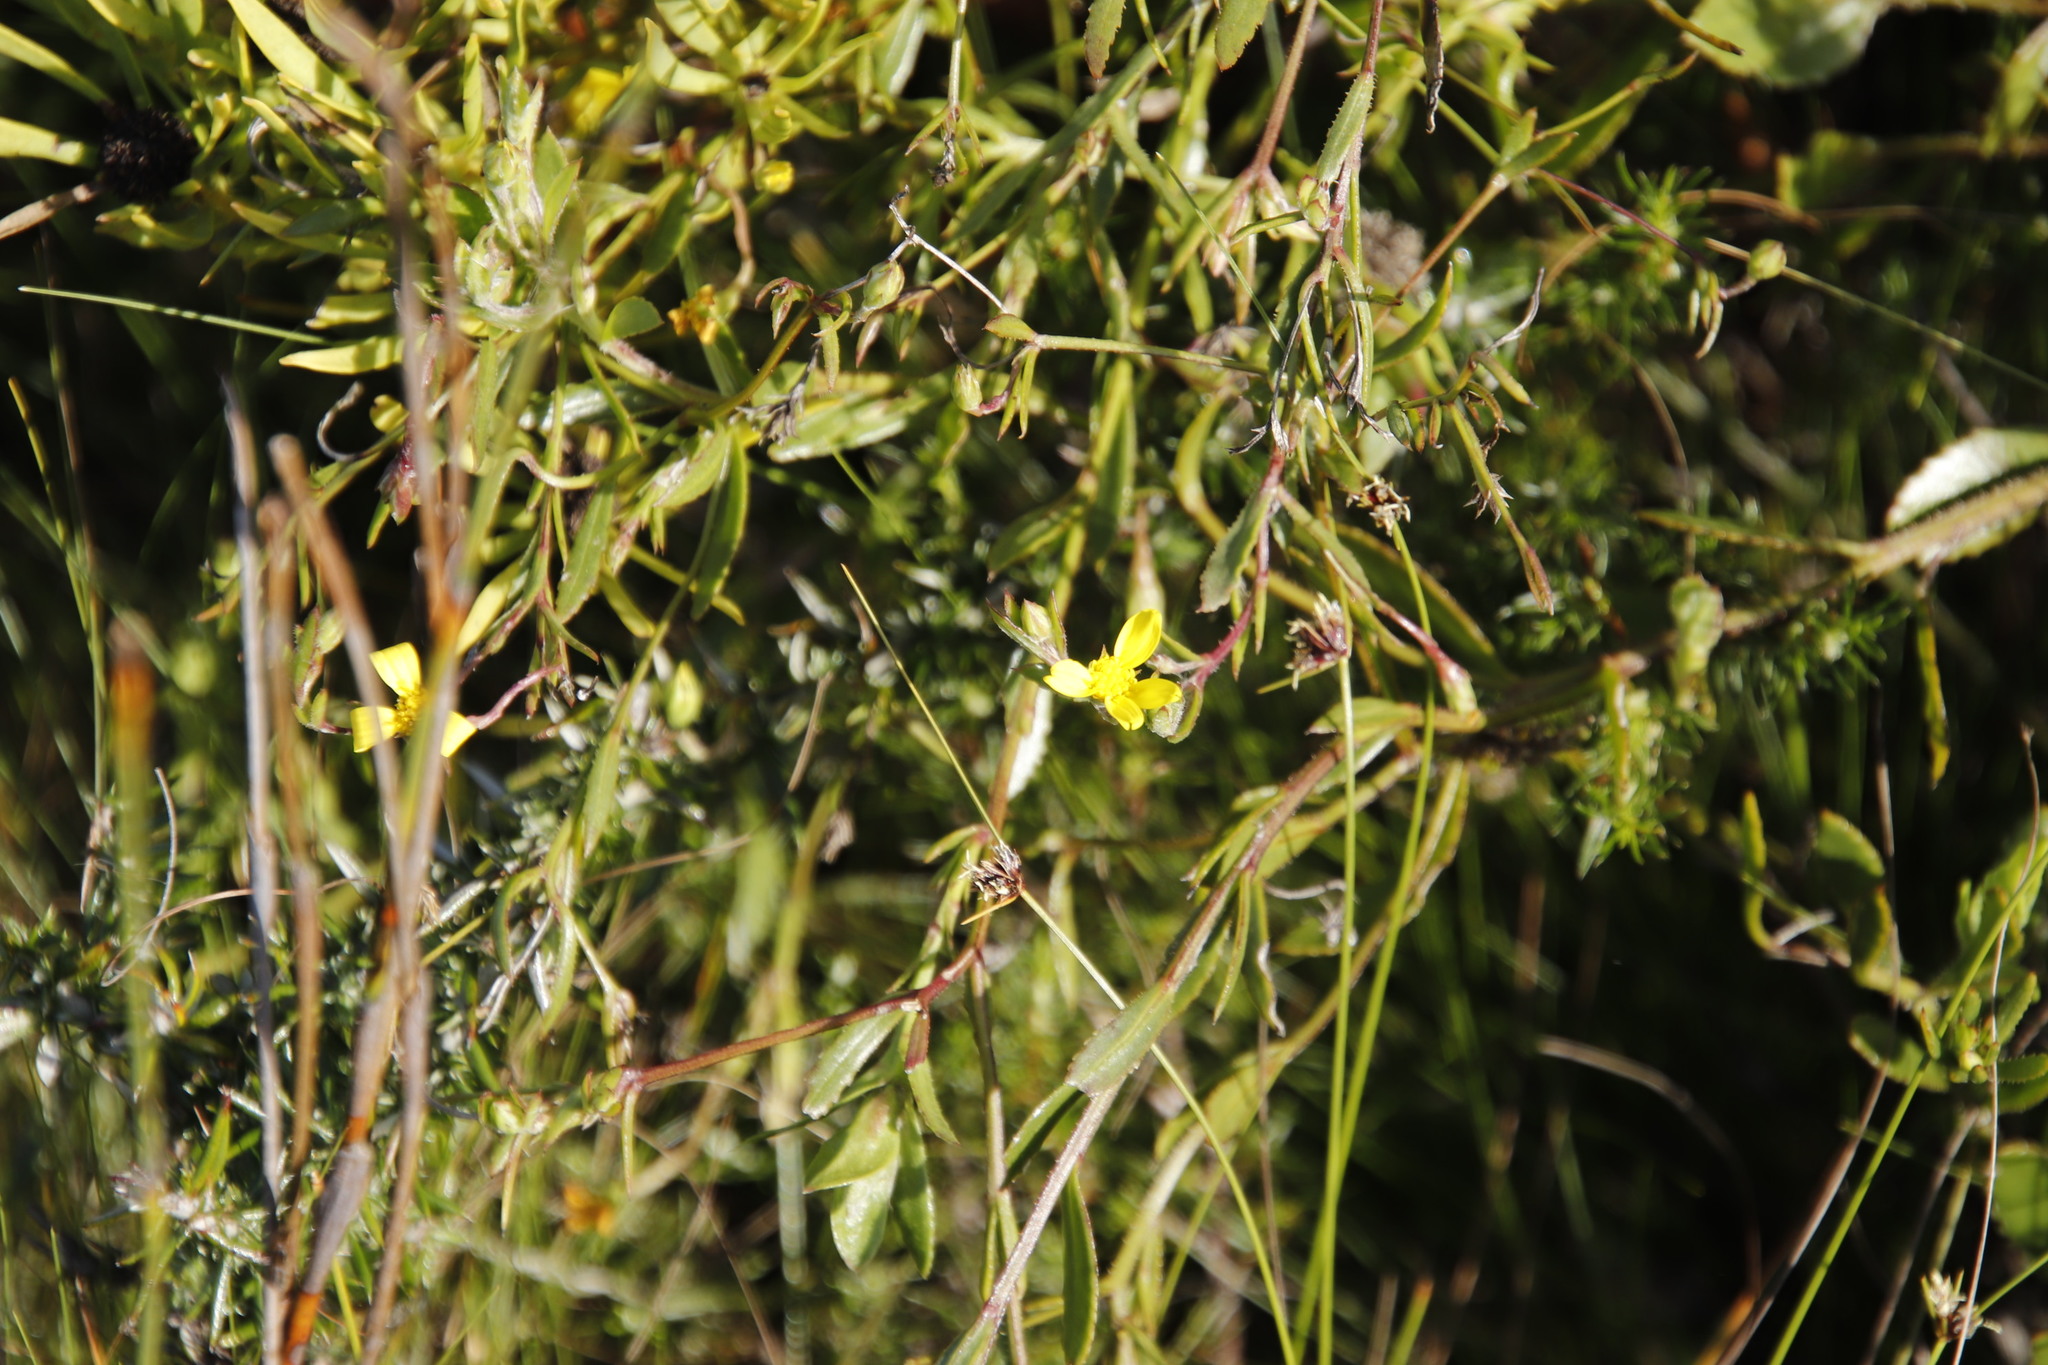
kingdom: Plantae
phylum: Tracheophyta
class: Magnoliopsida
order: Asterales
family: Asteraceae
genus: Osteospermum
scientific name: Osteospermum ciliatum
